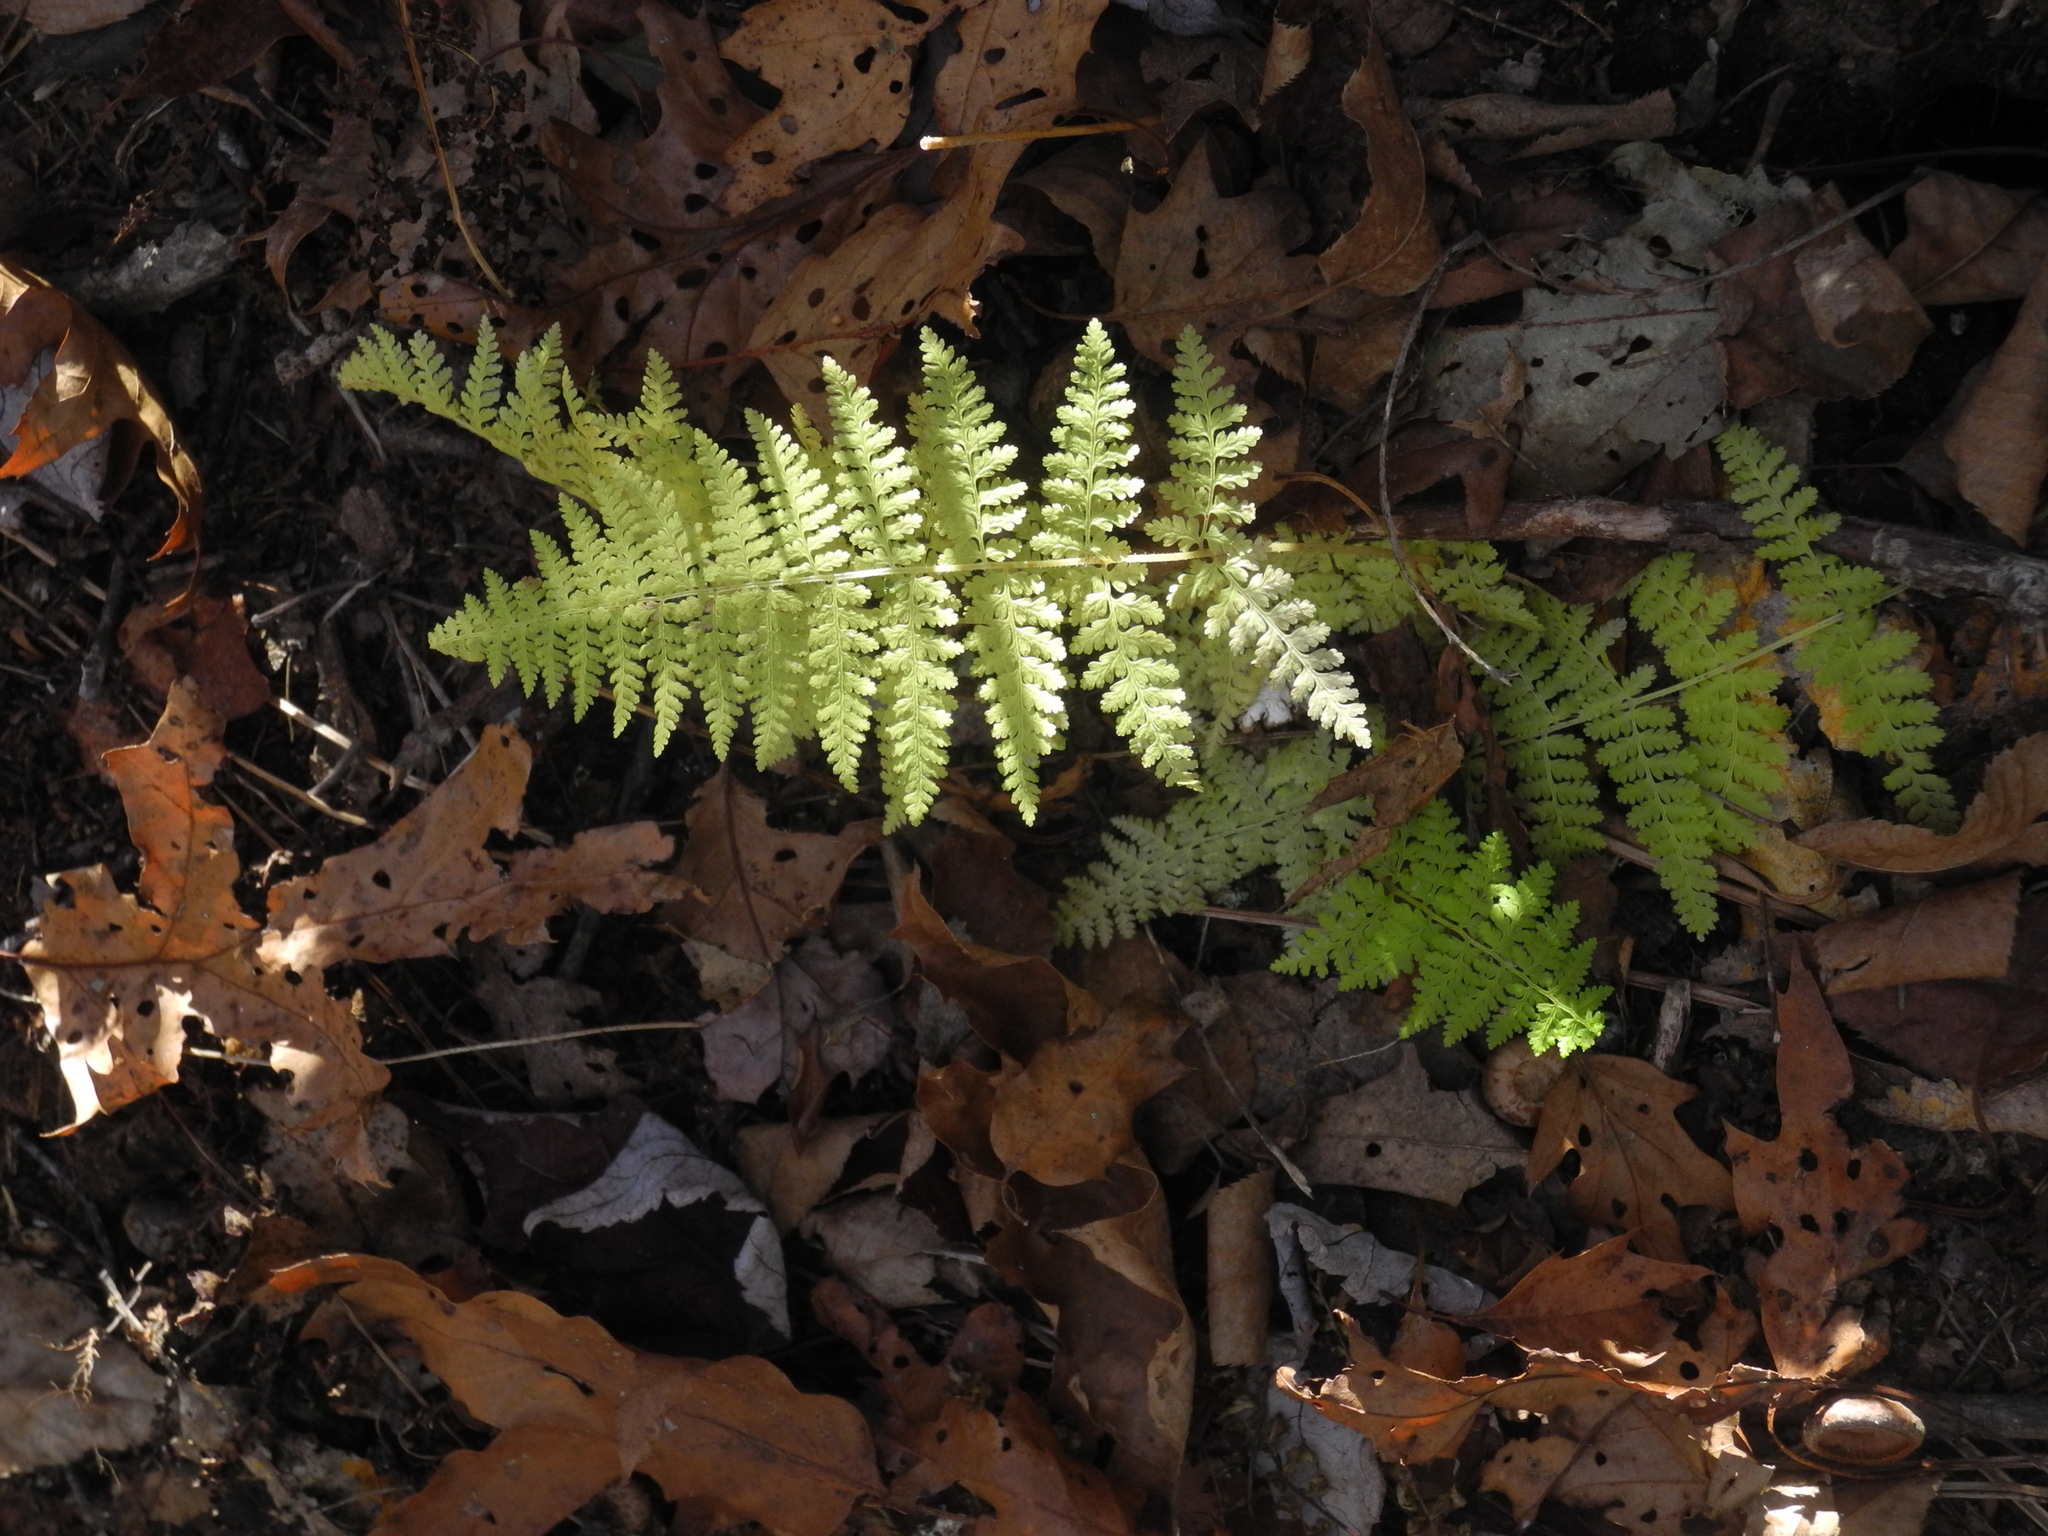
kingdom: Plantae
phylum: Tracheophyta
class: Polypodiopsida
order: Polypodiales
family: Dennstaedtiaceae
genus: Sitobolium
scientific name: Sitobolium punctilobum
